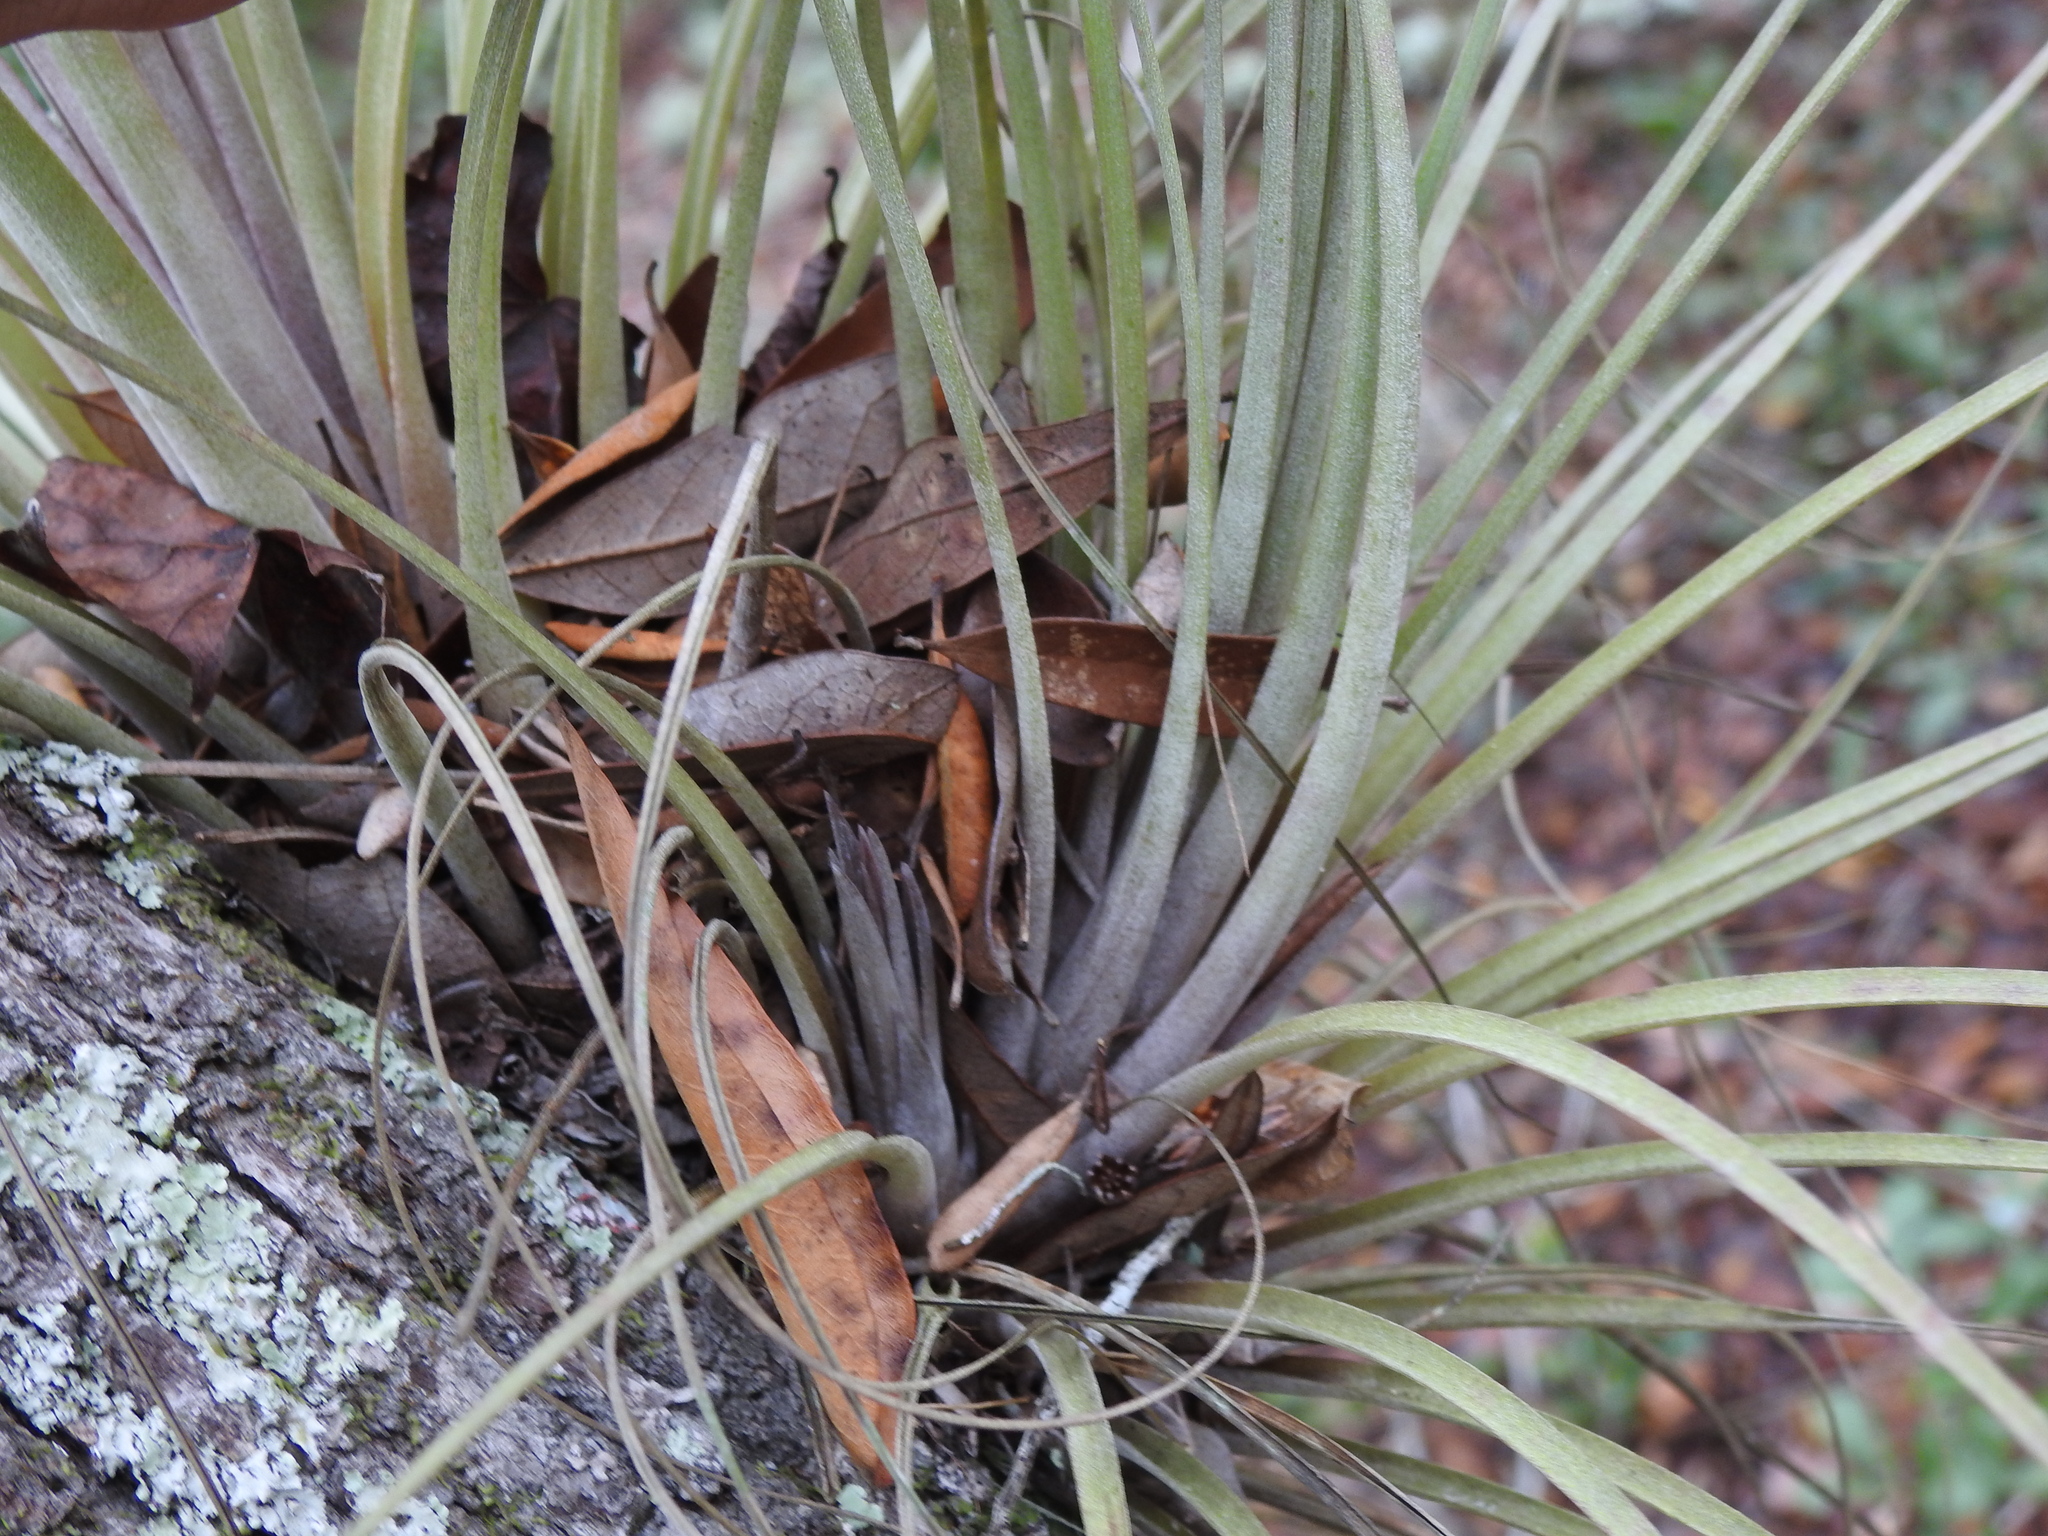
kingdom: Plantae
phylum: Tracheophyta
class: Liliopsida
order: Poales
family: Bromeliaceae
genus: Tillandsia
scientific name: Tillandsia simulata
